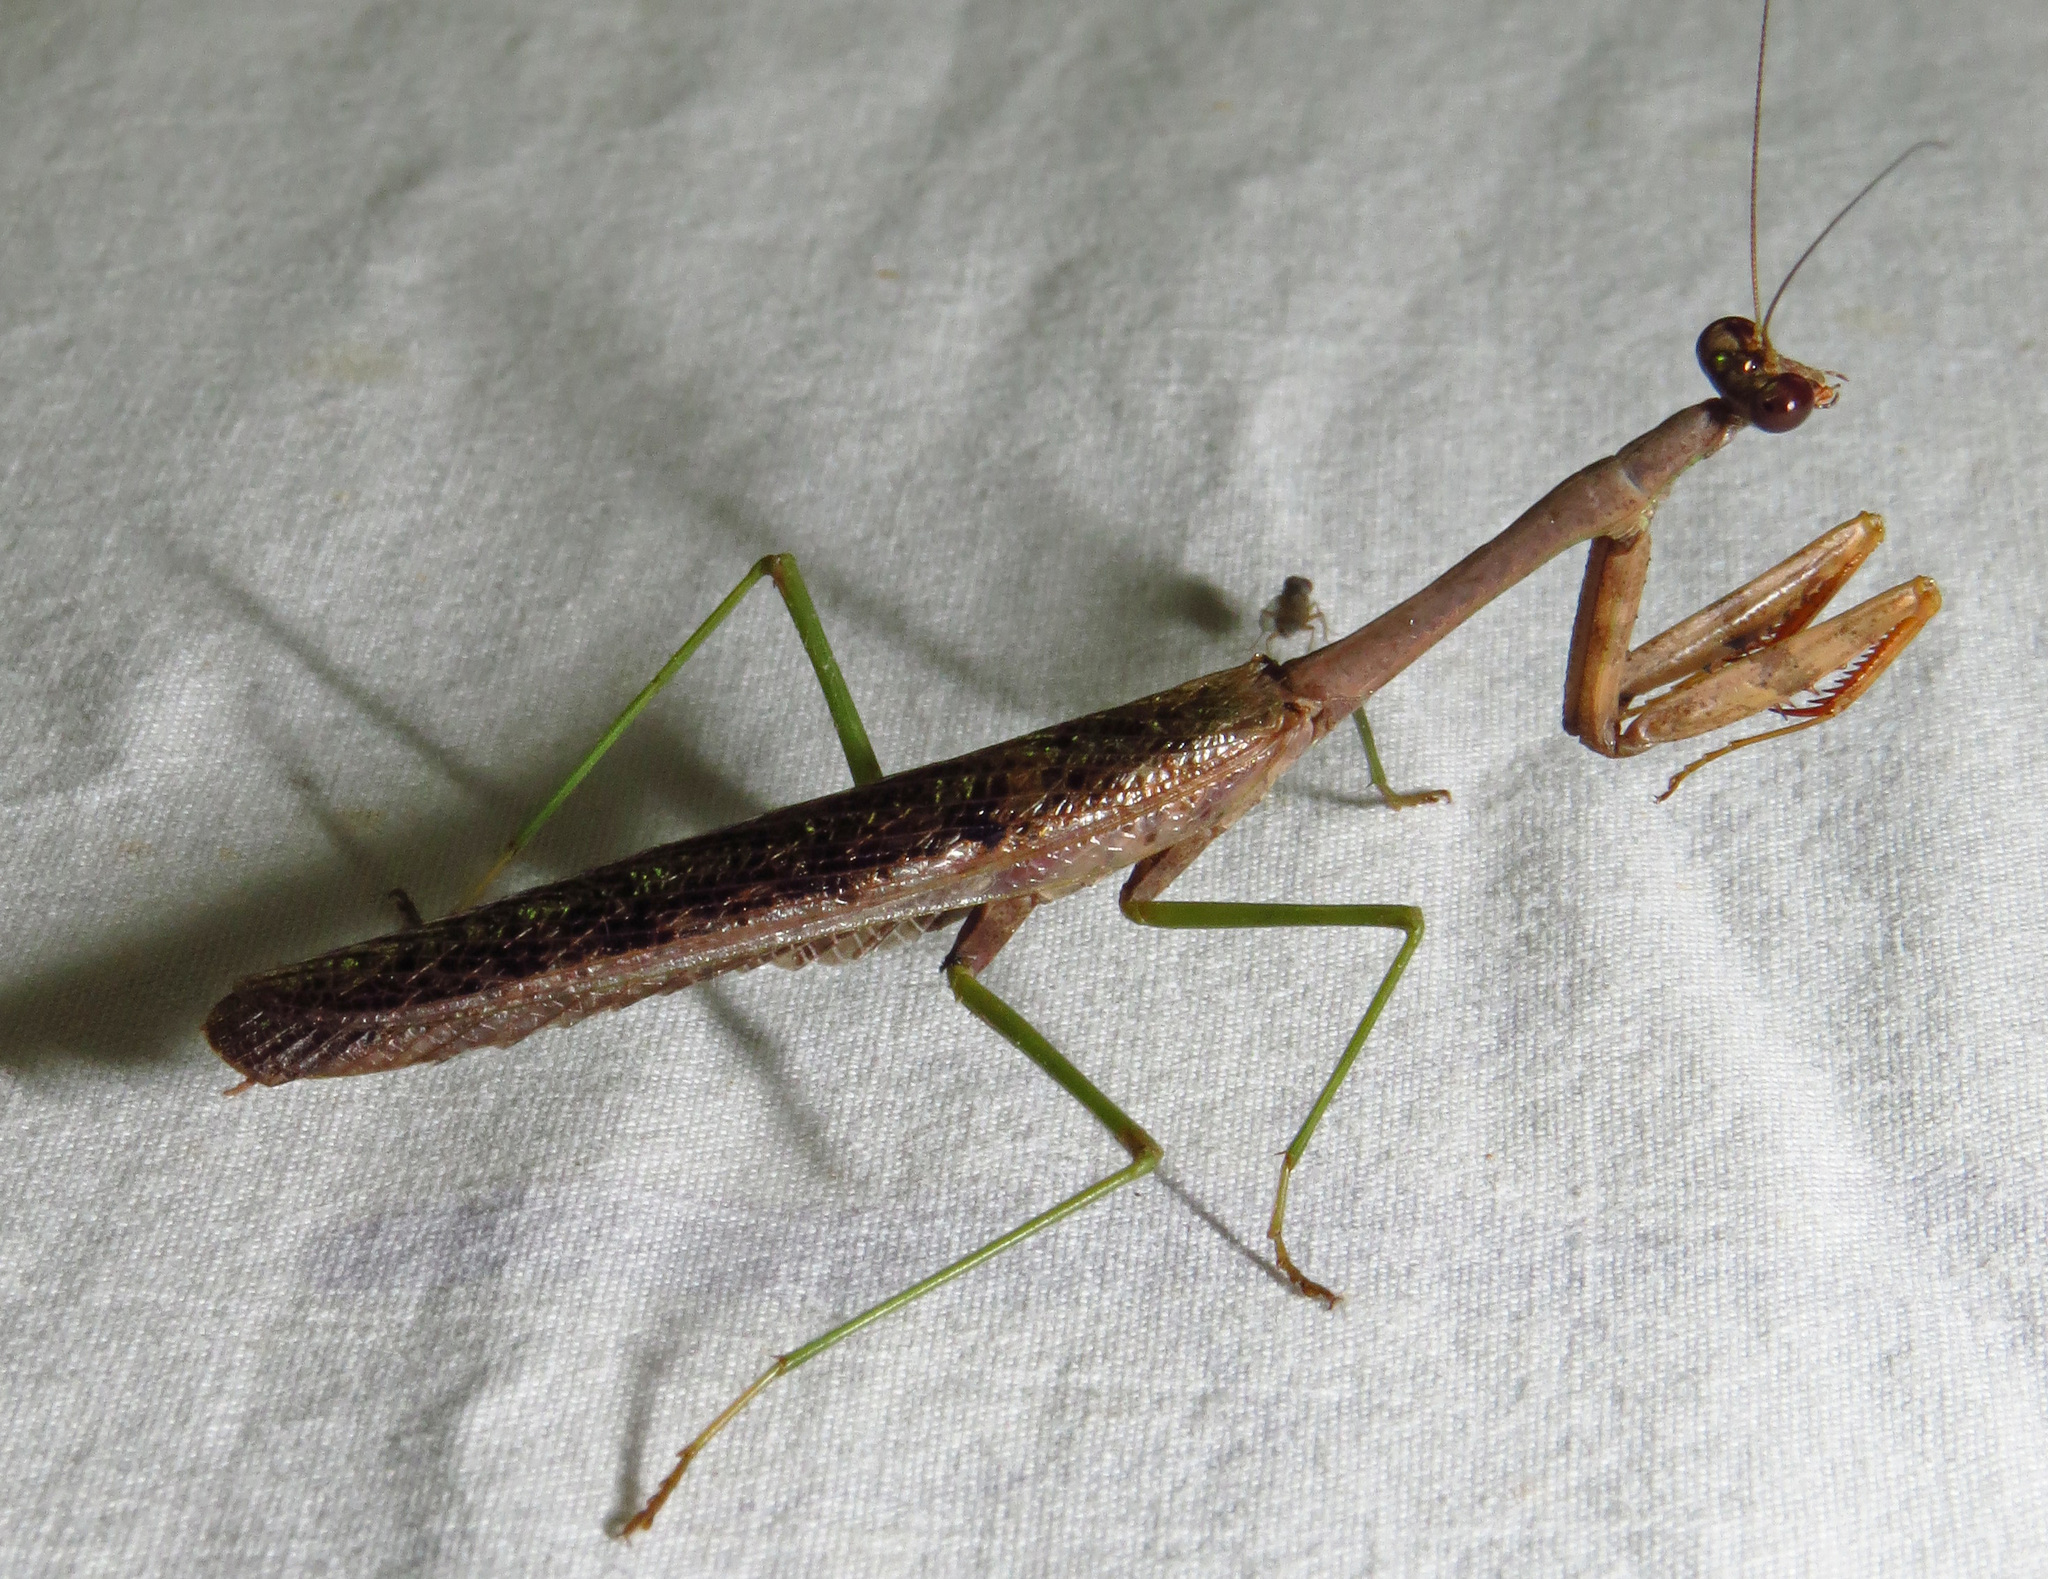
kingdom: Animalia
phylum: Arthropoda
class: Insecta
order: Mantodea
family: Mantidae
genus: Stagmomantis
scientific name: Stagmomantis carolina
